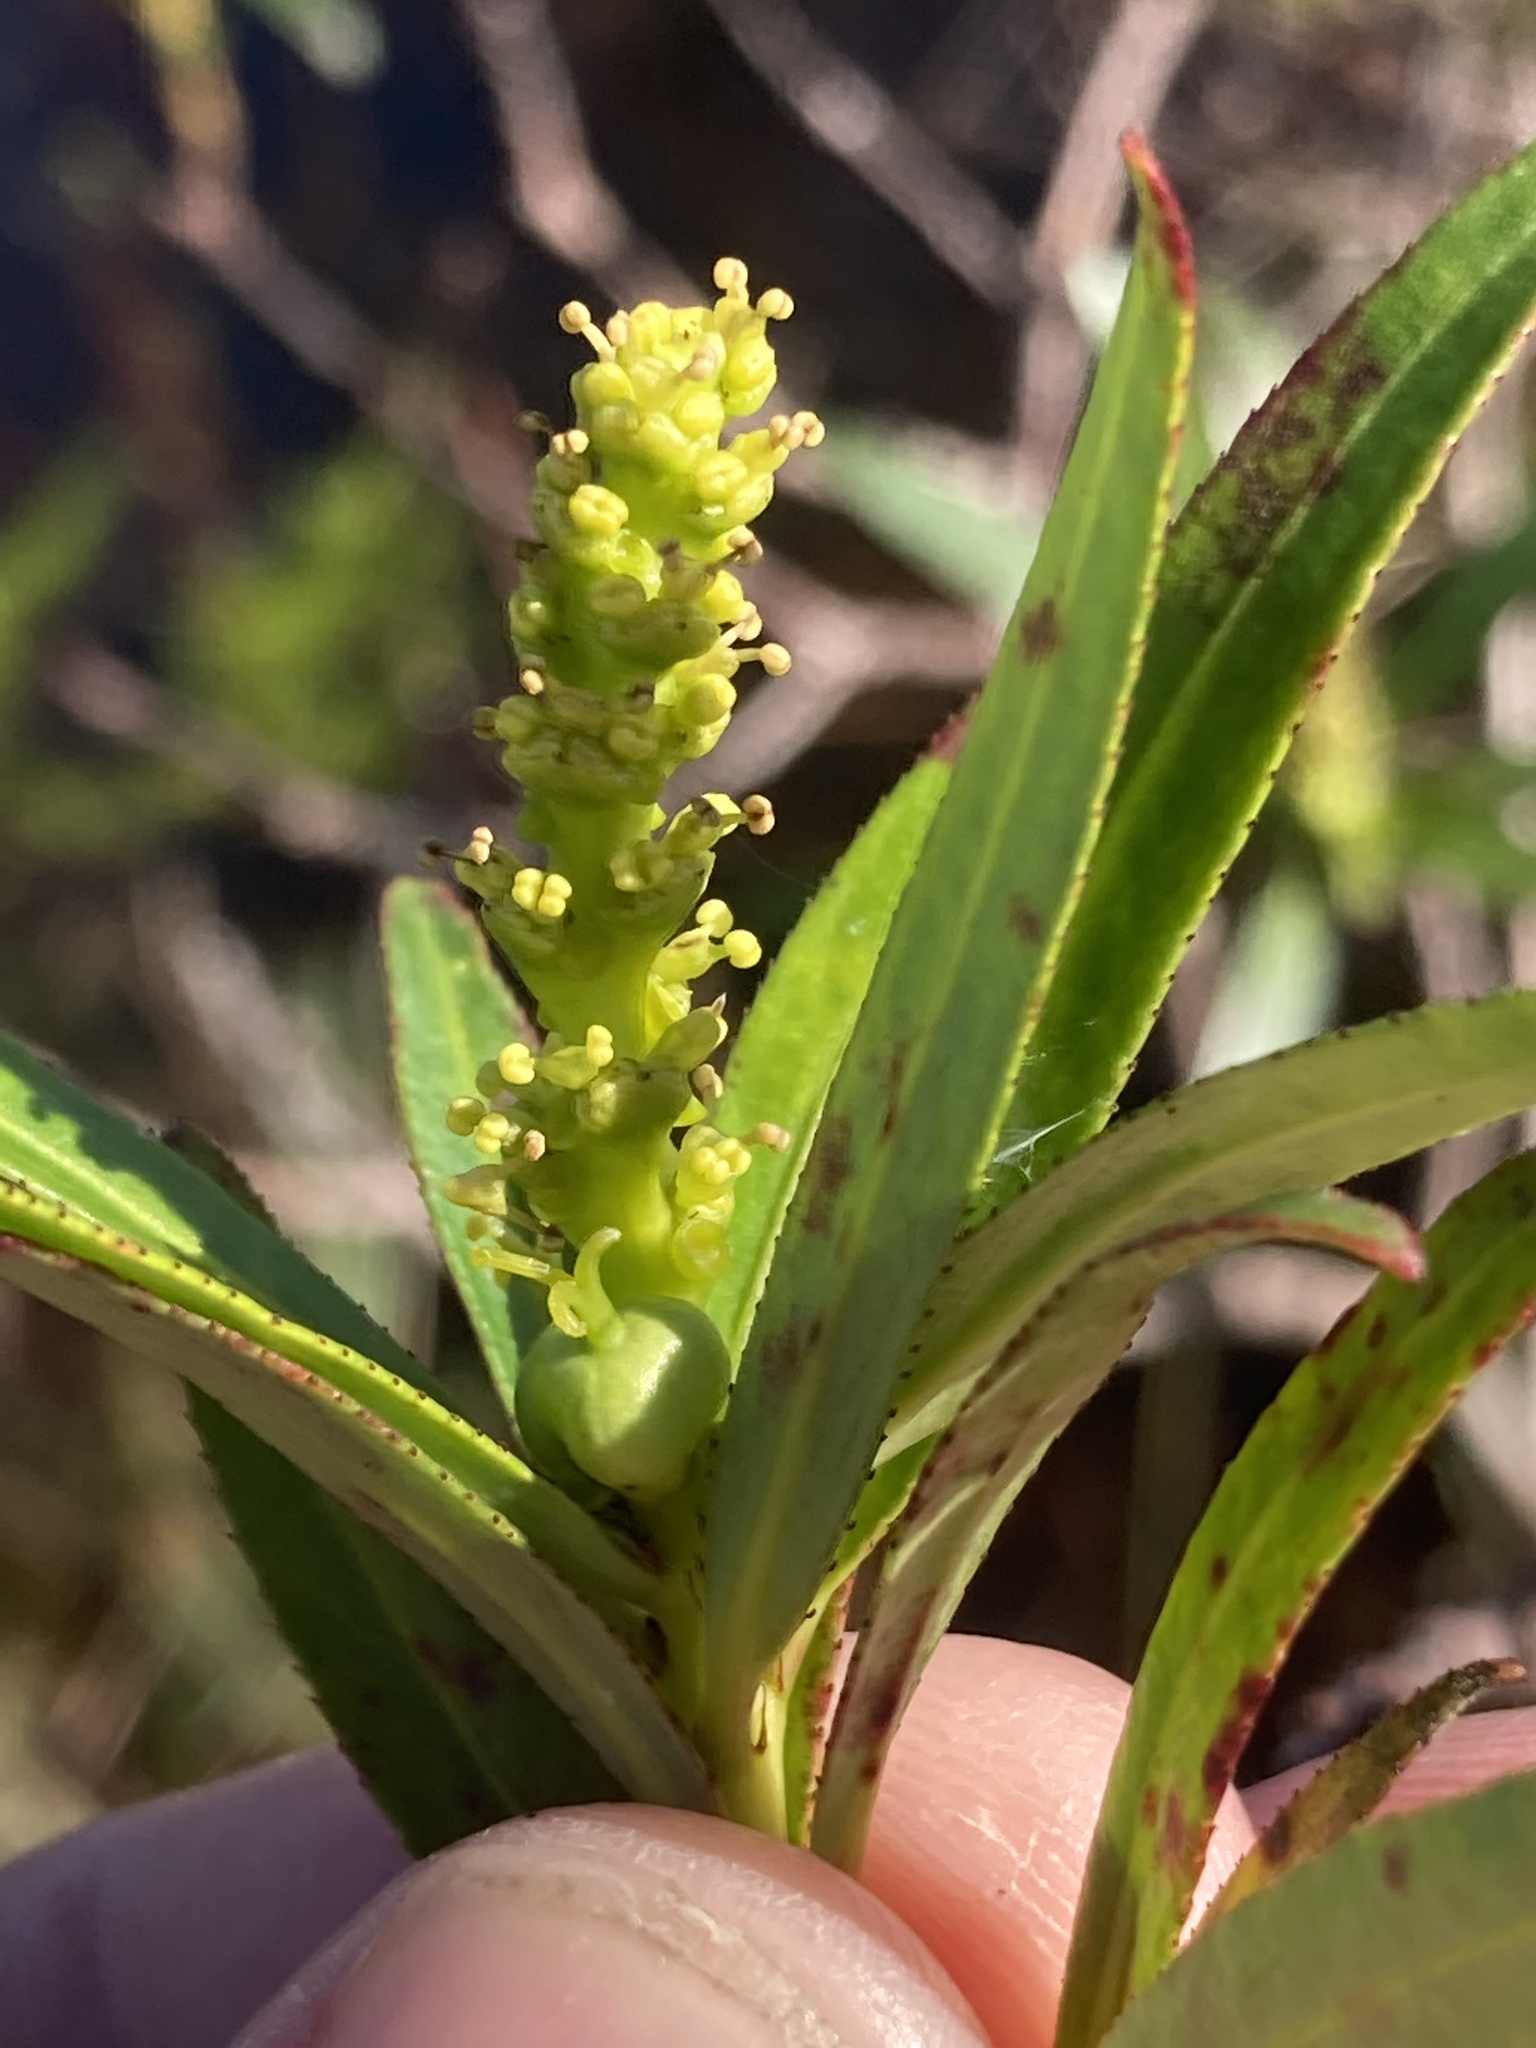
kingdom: Plantae
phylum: Tracheophyta
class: Magnoliopsida
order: Malpighiales
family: Euphorbiaceae
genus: Stillingia
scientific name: Stillingia aquatica
